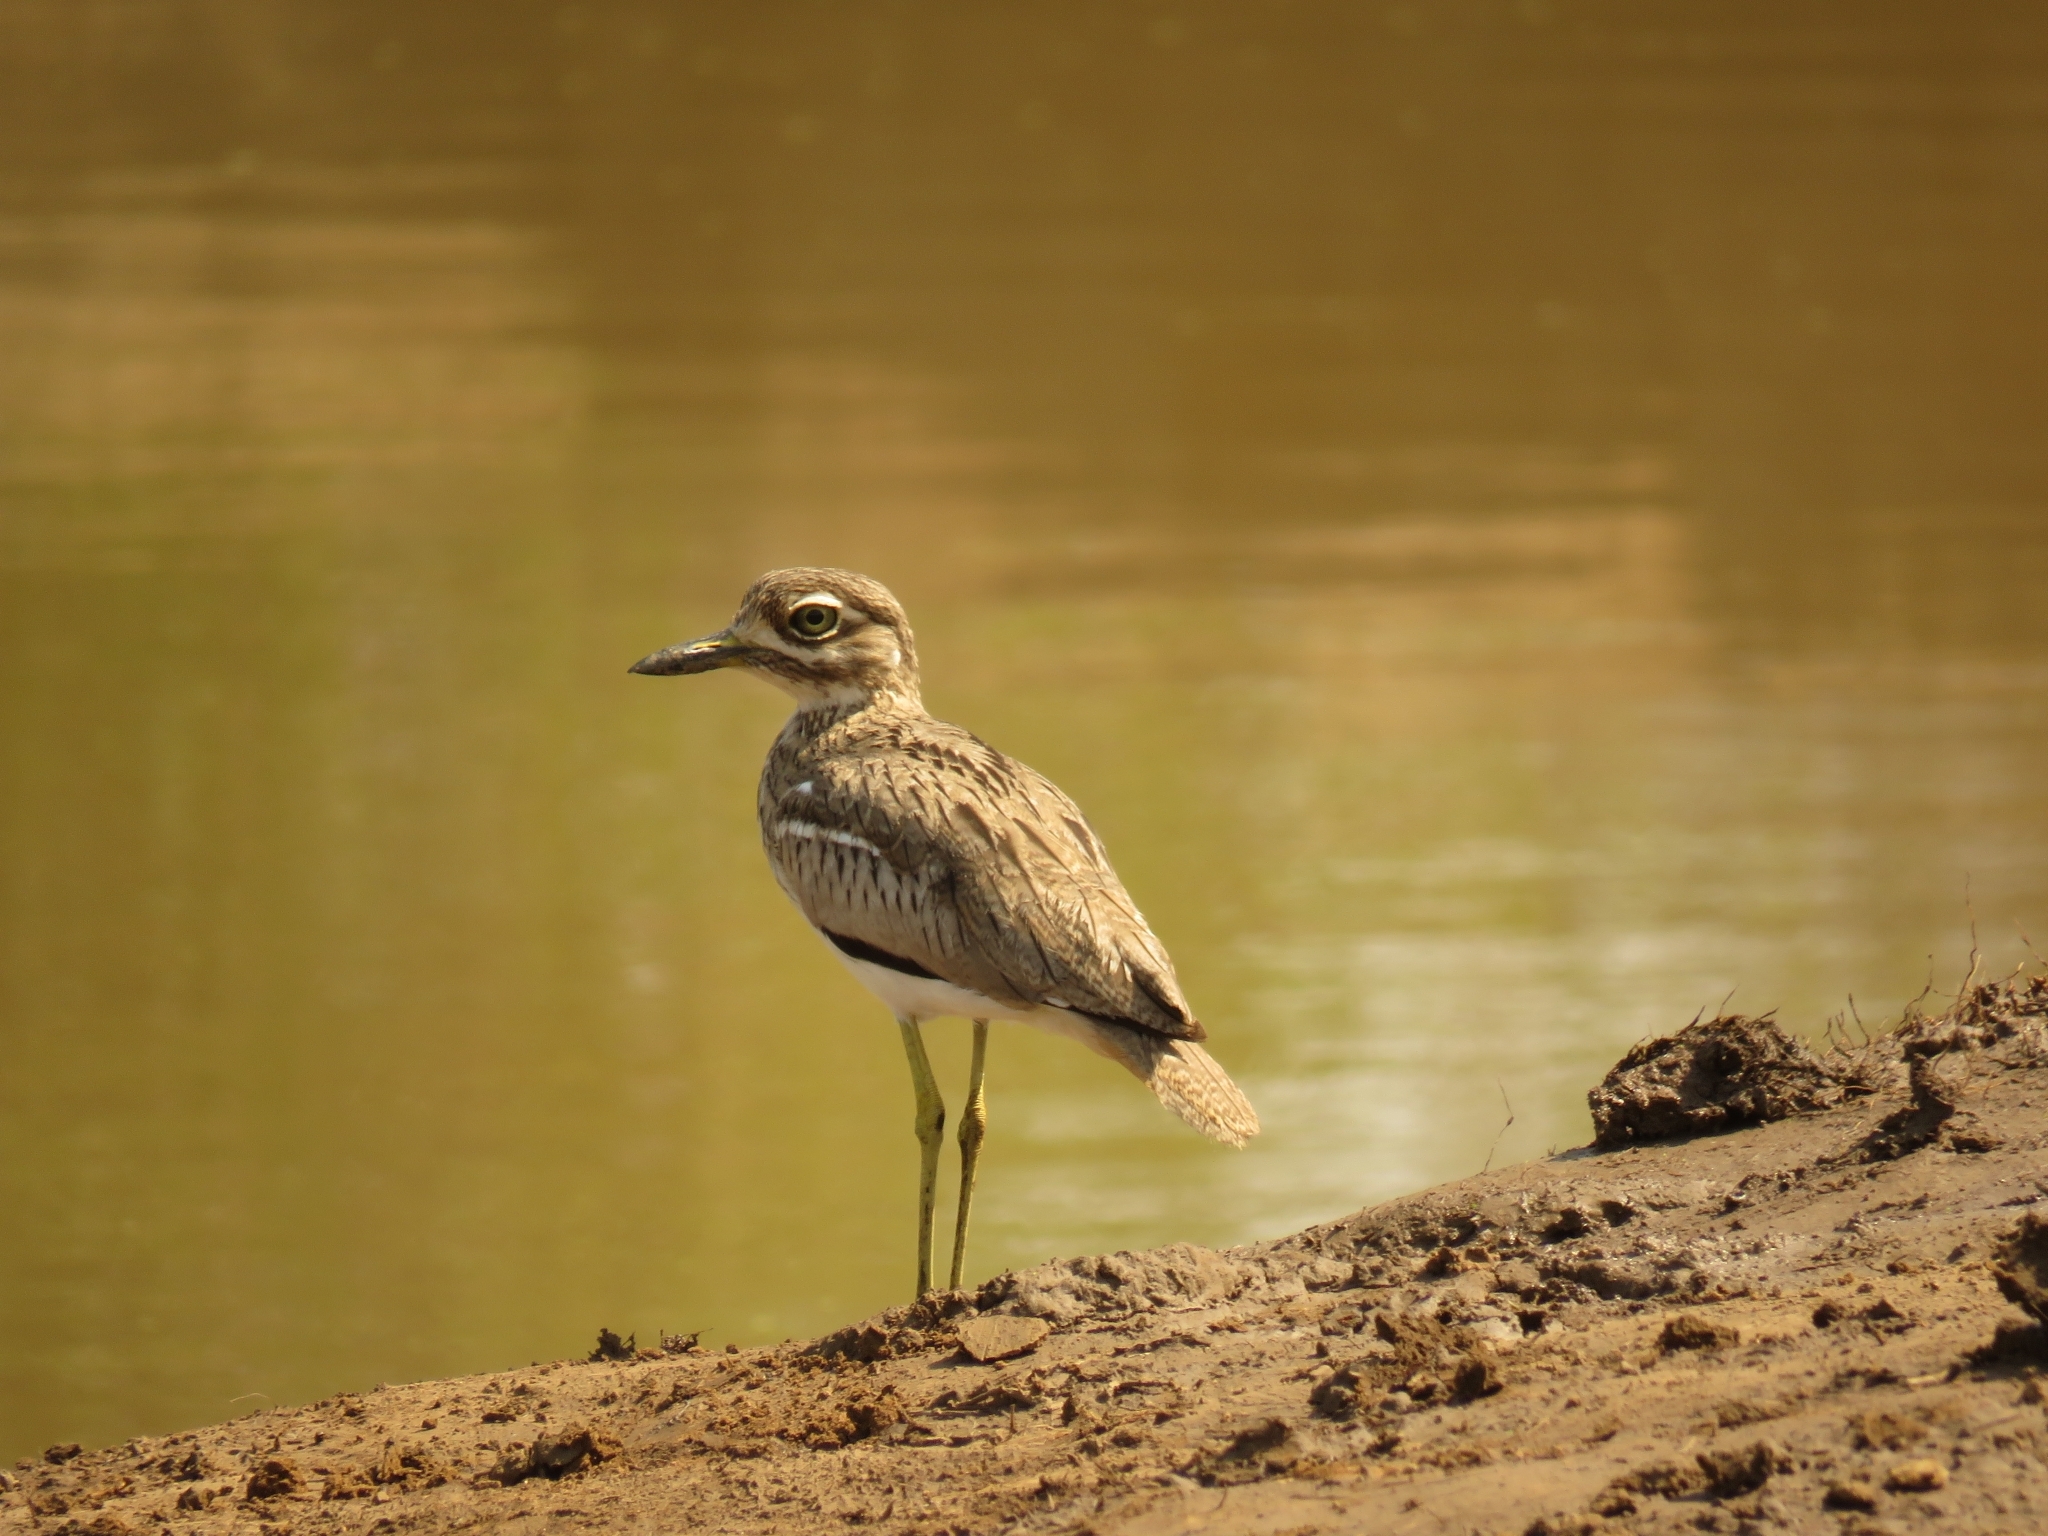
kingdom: Animalia
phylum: Chordata
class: Aves
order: Charadriiformes
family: Burhinidae
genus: Burhinus
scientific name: Burhinus vermiculatus
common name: Water thick-knee
